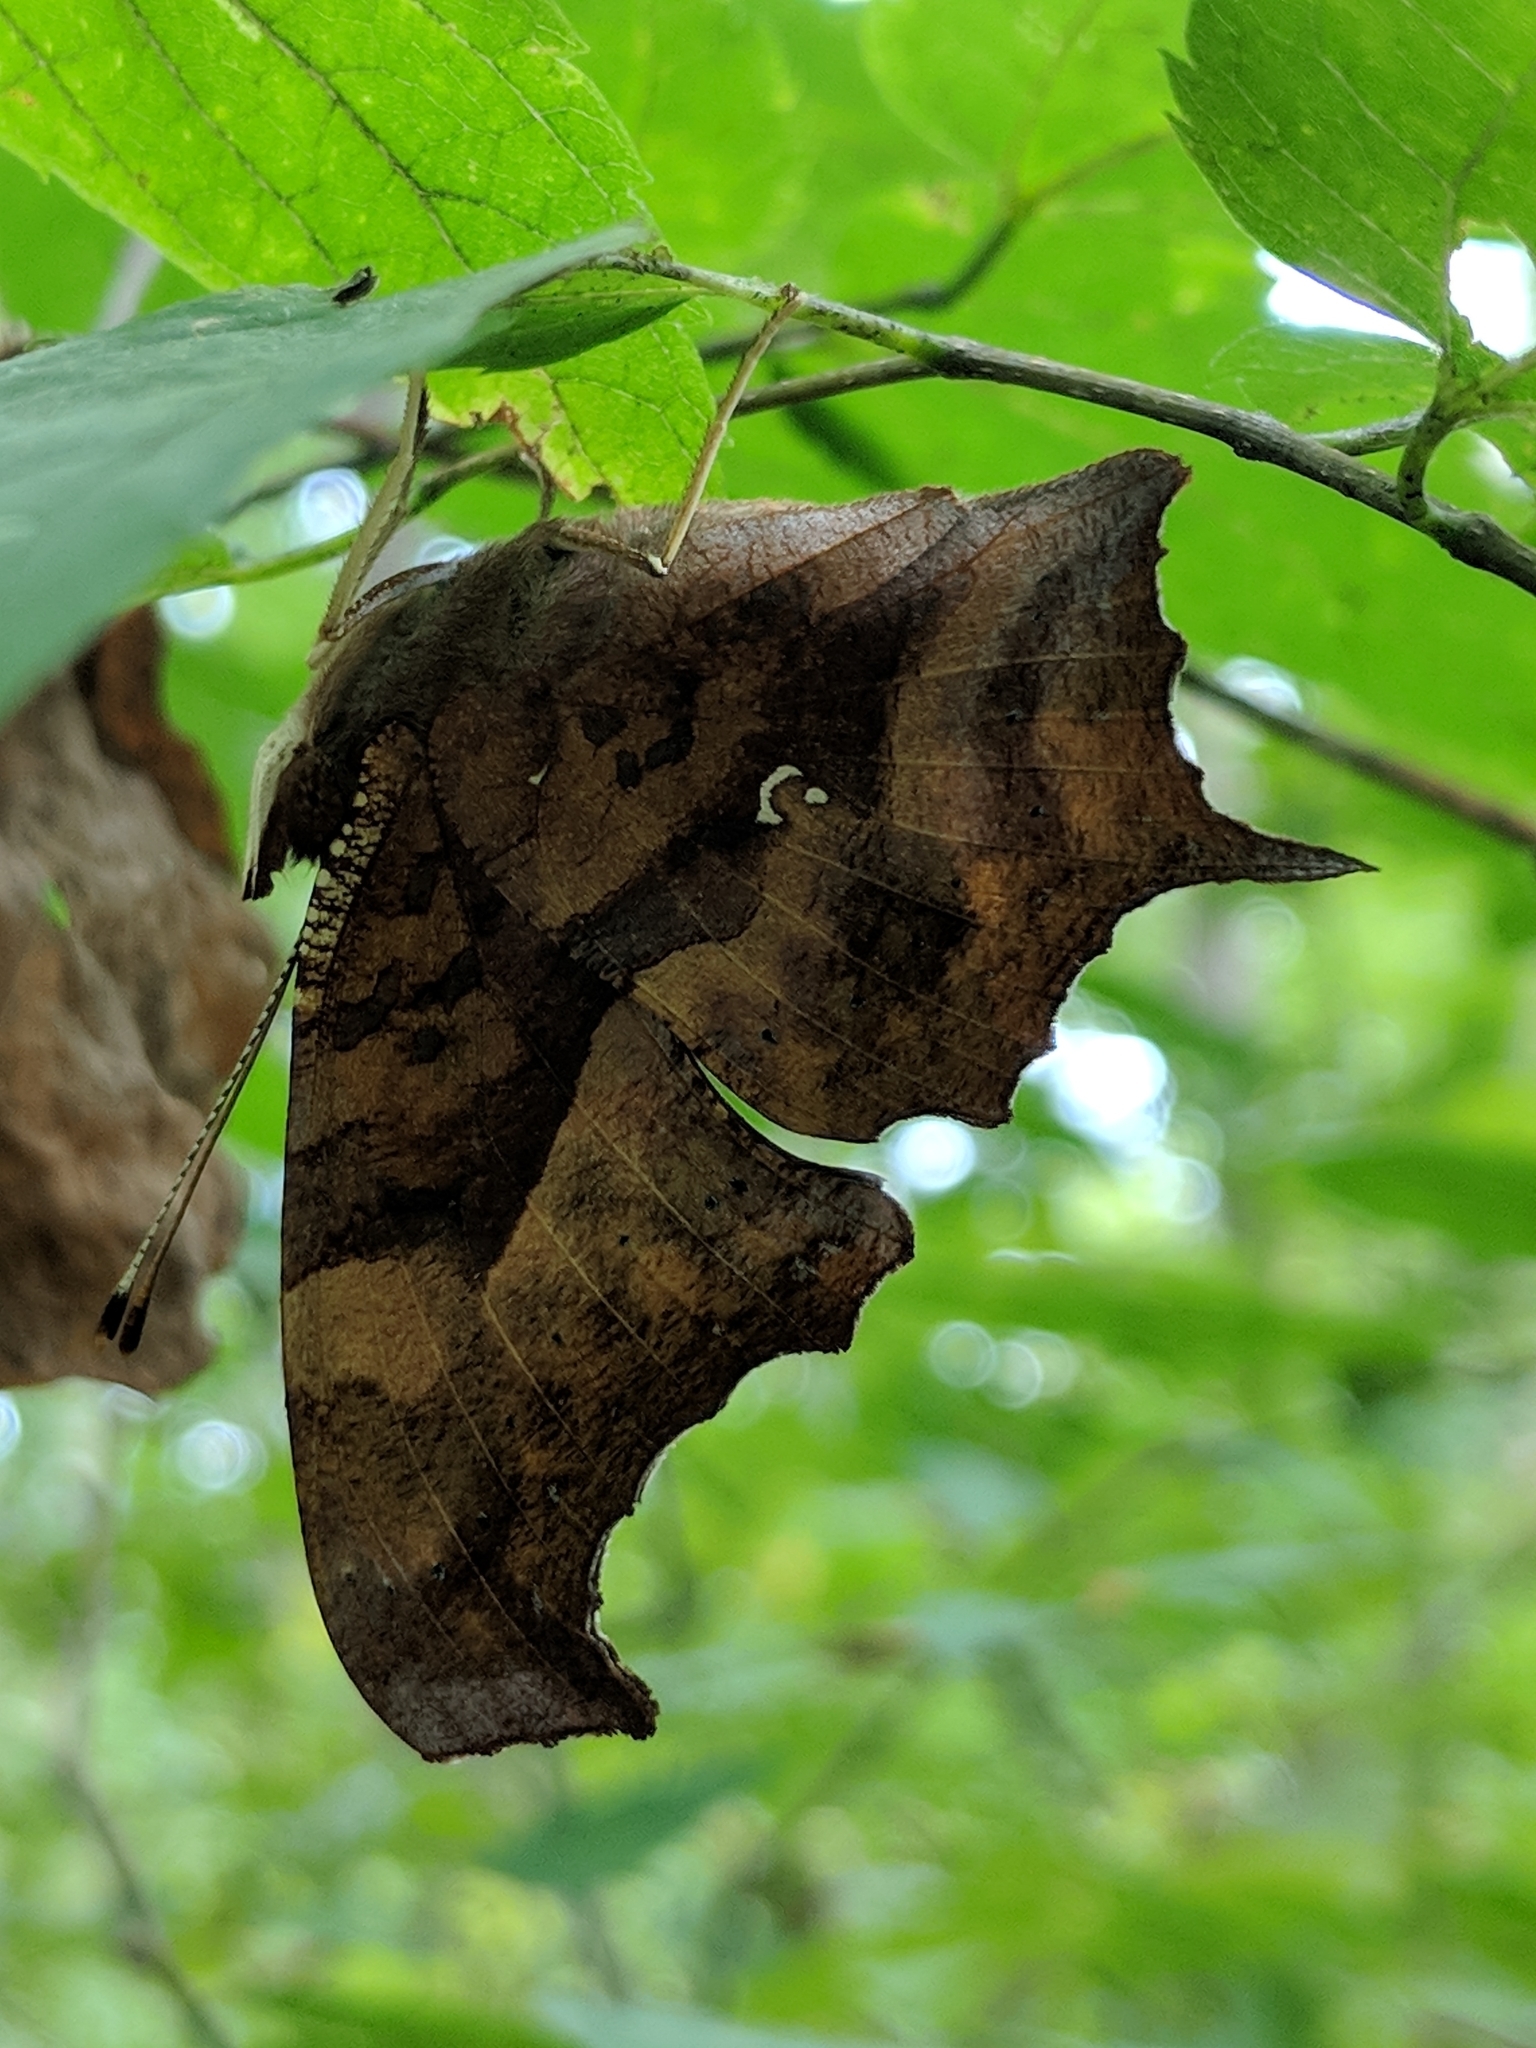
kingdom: Animalia
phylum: Arthropoda
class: Insecta
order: Lepidoptera
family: Nymphalidae
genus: Polygonia
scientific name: Polygonia interrogationis
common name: Question mark
